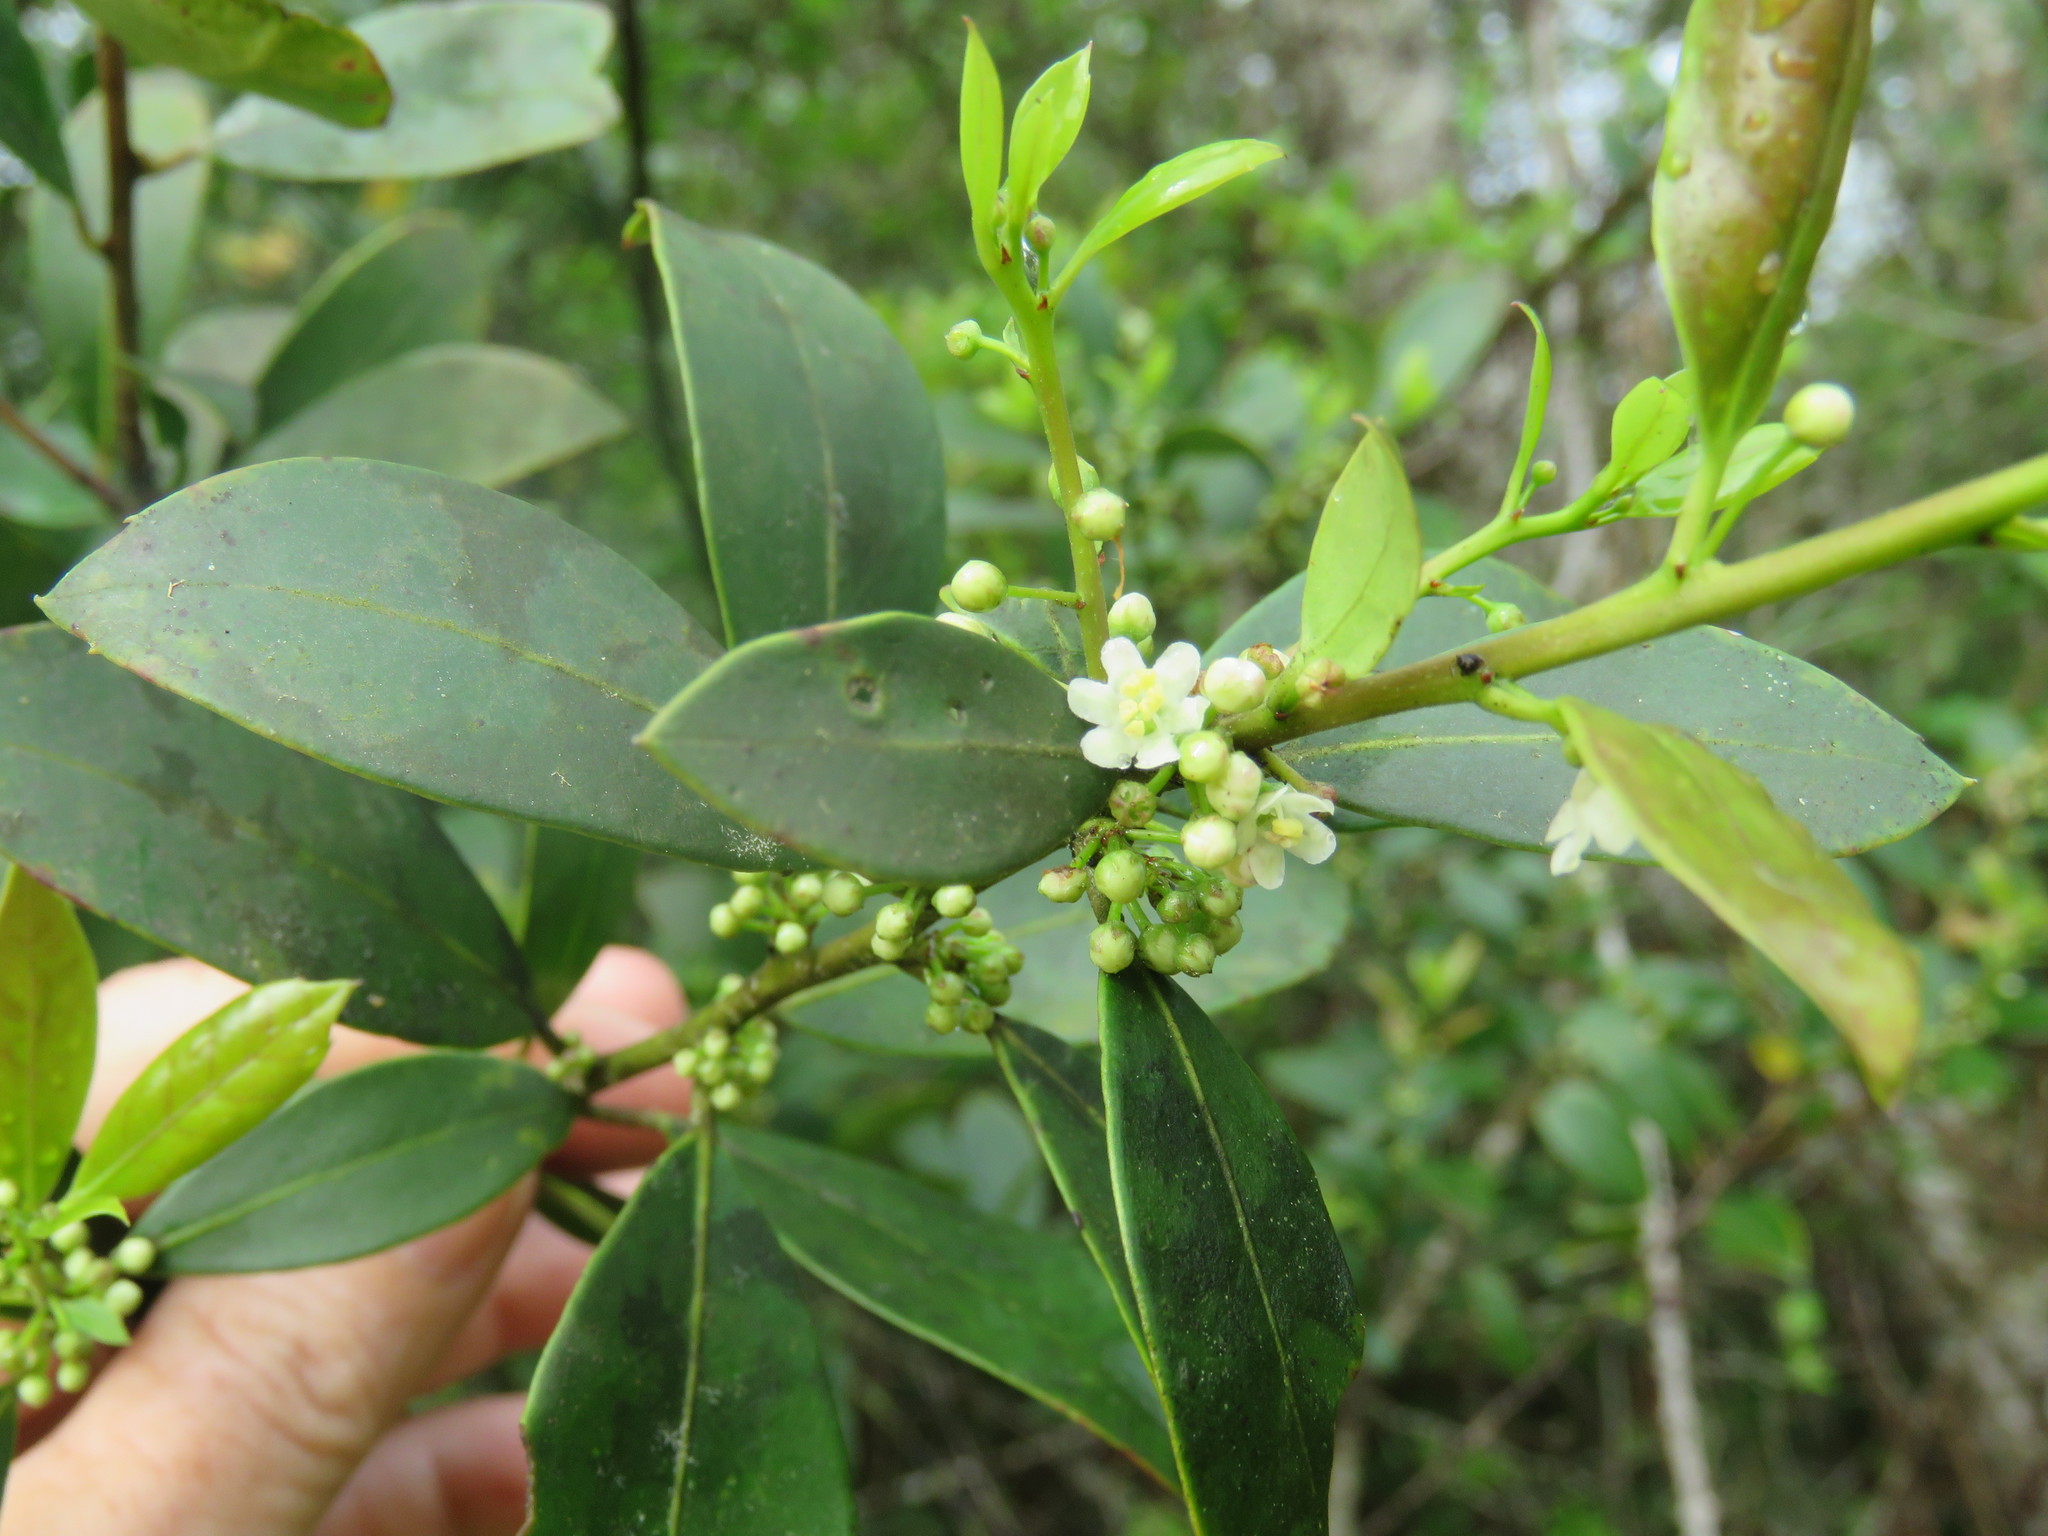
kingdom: Plantae
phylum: Tracheophyta
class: Magnoliopsida
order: Aquifoliales
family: Aquifoliaceae
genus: Ilex
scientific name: Ilex coriacea
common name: Sweet gallberry
